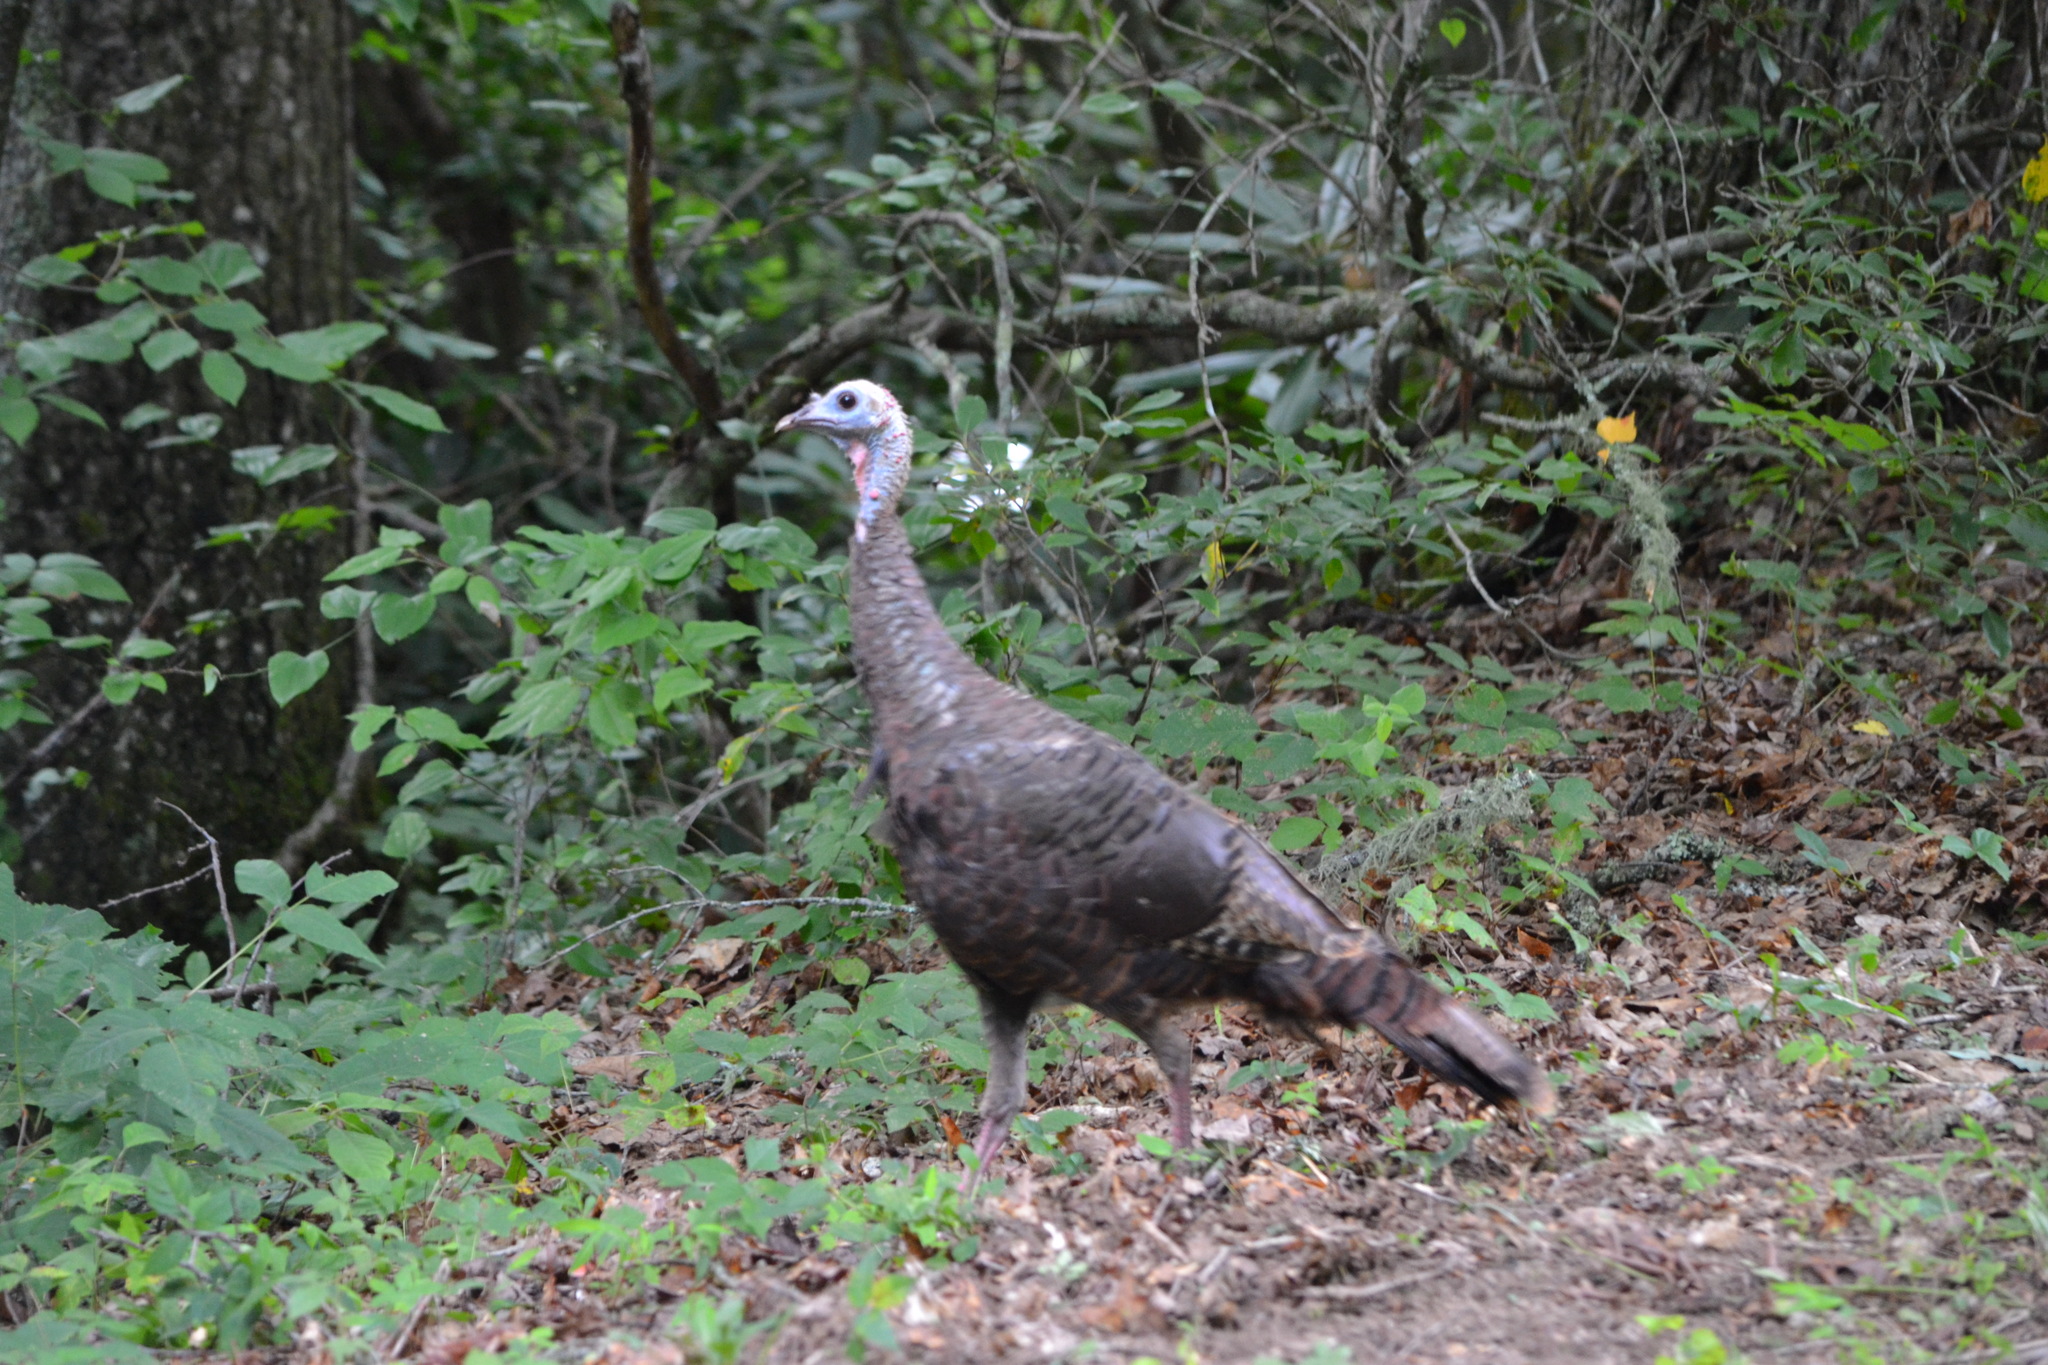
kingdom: Animalia
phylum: Chordata
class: Aves
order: Galliformes
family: Phasianidae
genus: Meleagris
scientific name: Meleagris gallopavo
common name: Wild turkey
